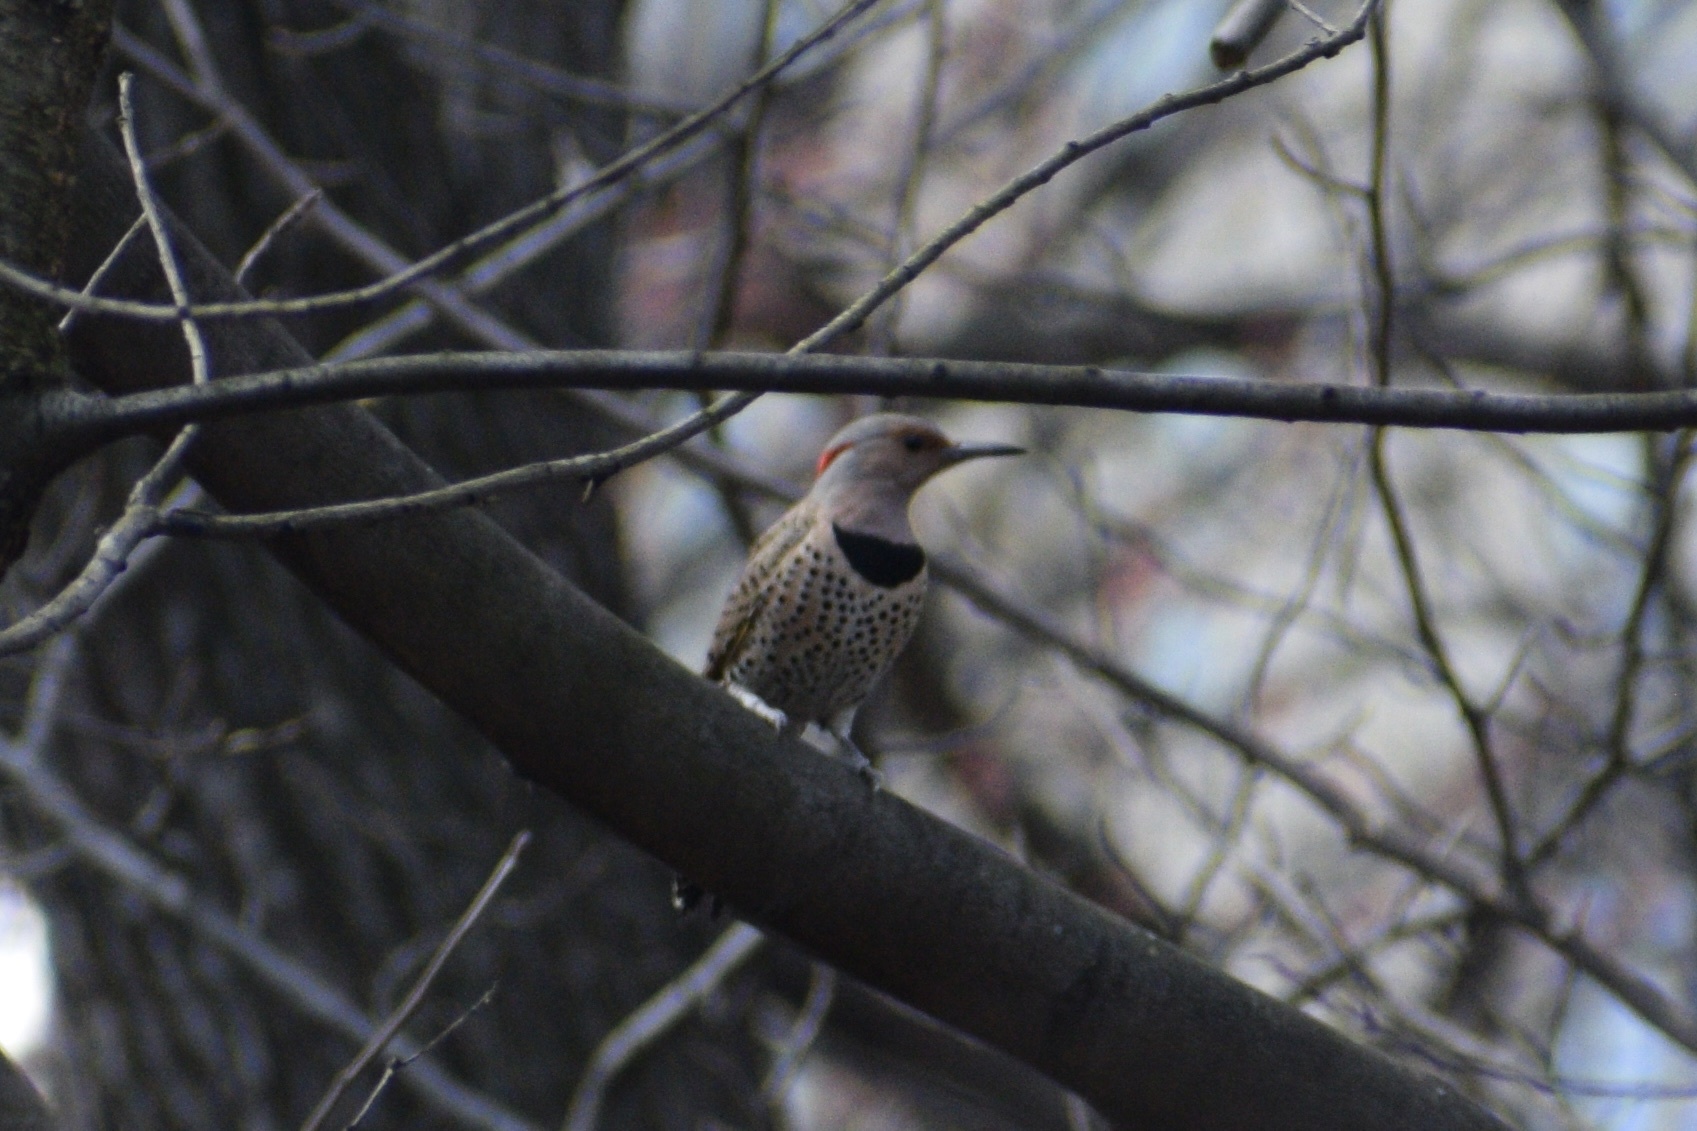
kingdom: Animalia
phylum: Chordata
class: Aves
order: Piciformes
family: Picidae
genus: Colaptes
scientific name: Colaptes auratus
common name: Northern flicker
